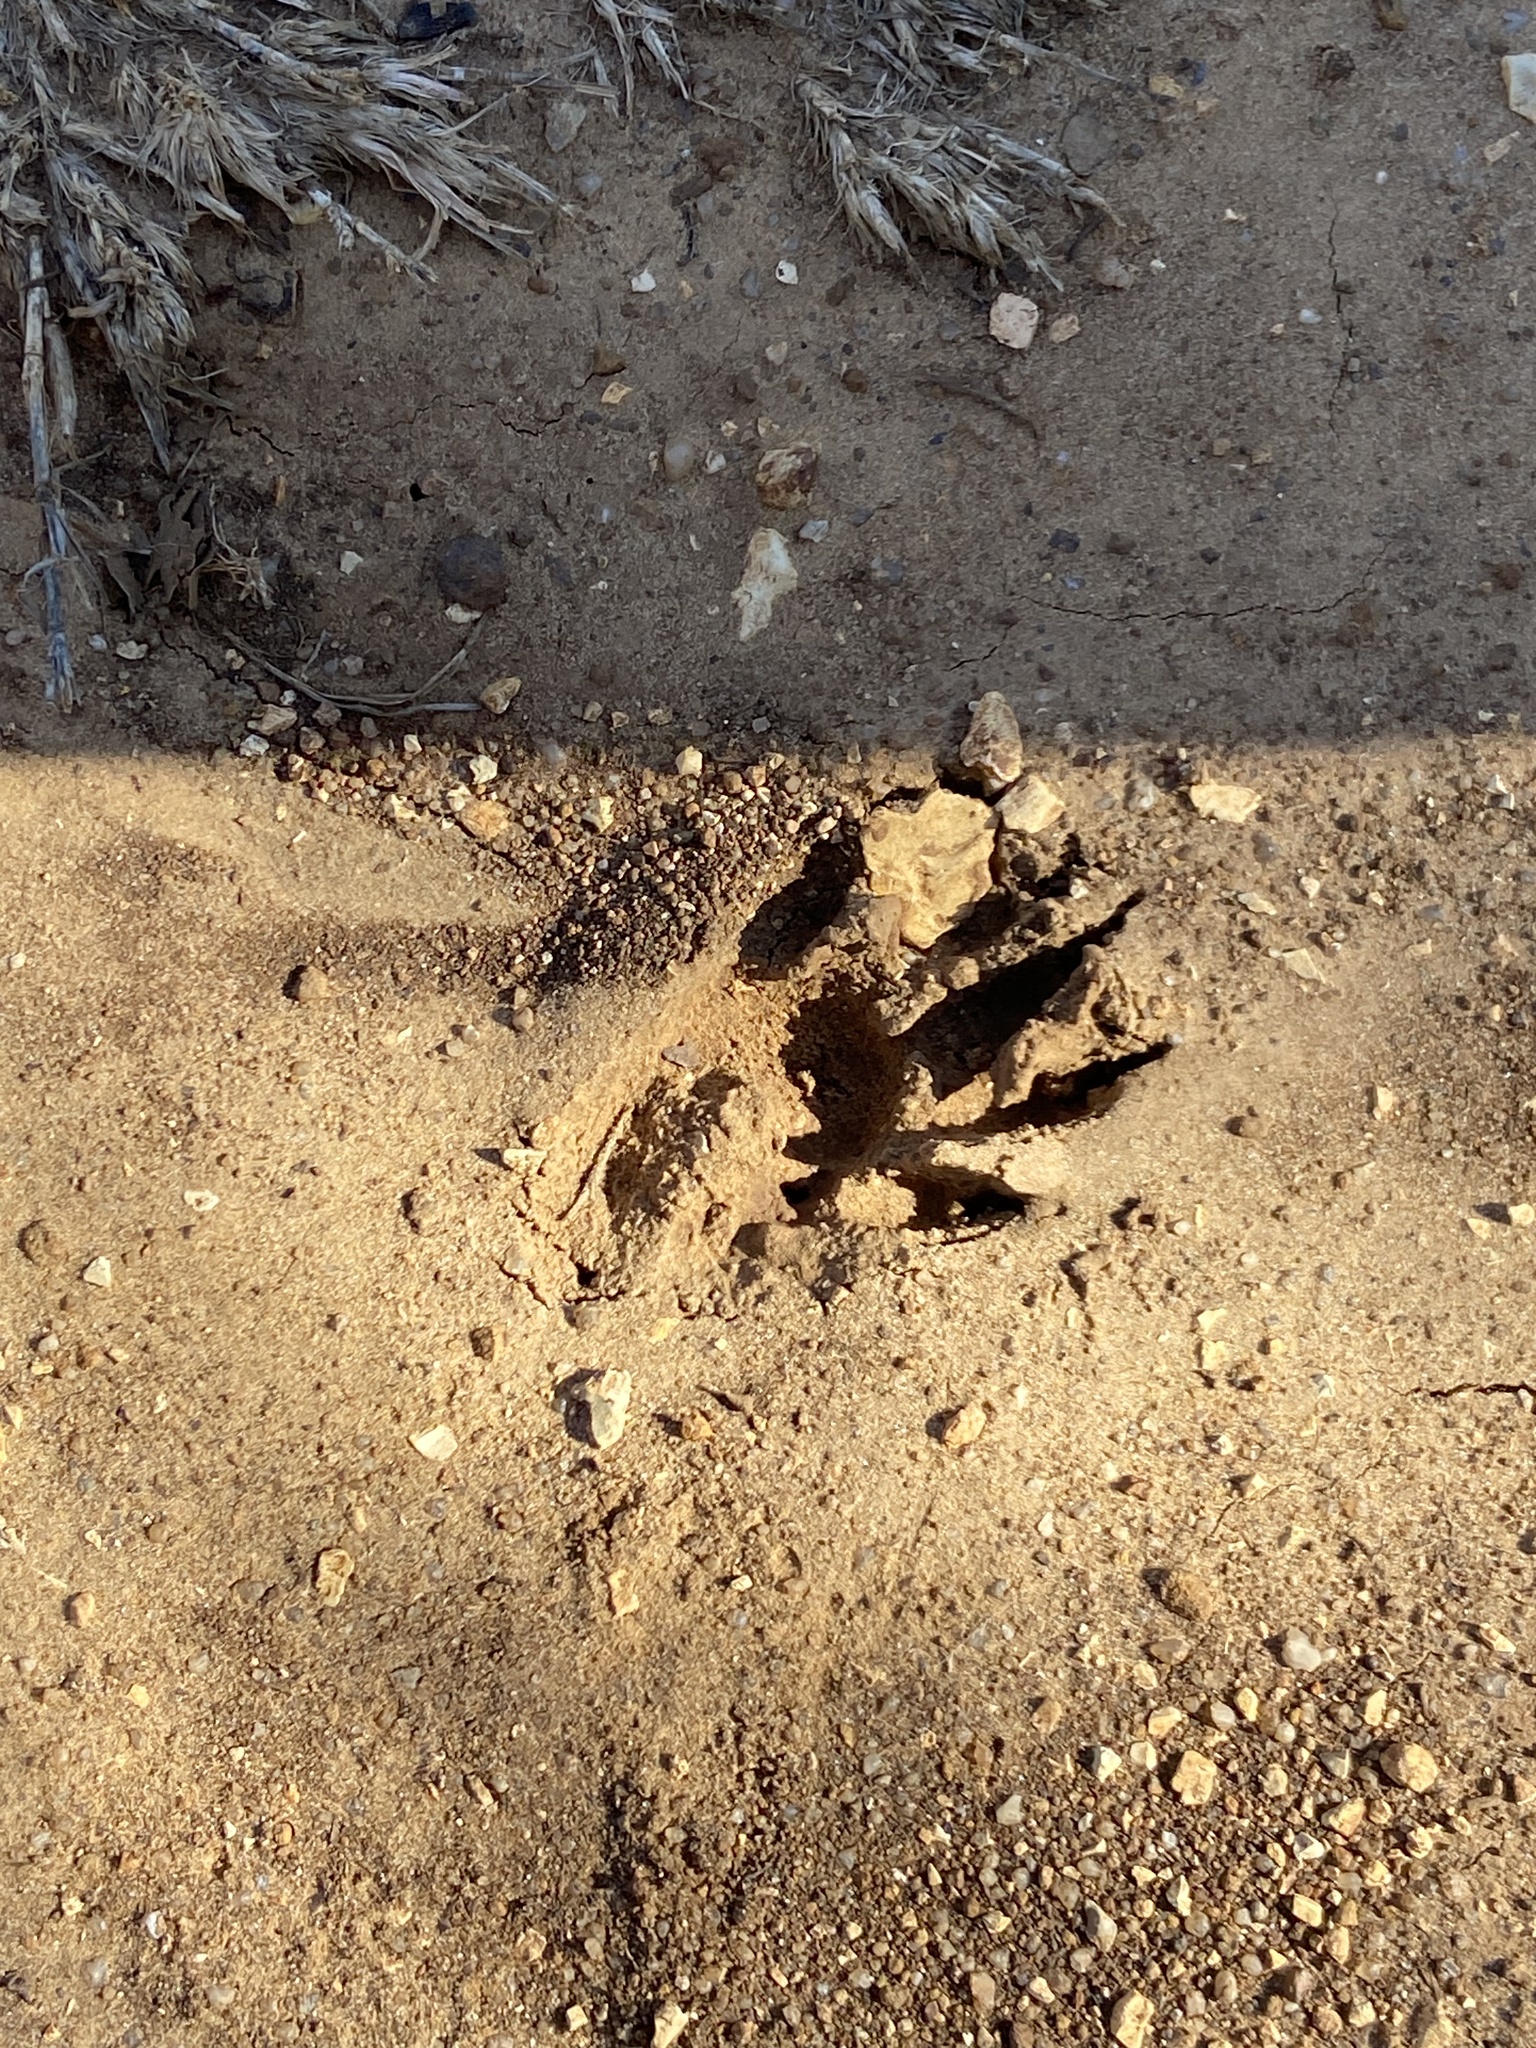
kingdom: Animalia
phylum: Chordata
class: Mammalia
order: Carnivora
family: Procyonidae
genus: Procyon
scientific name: Procyon lotor
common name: Raccoon
